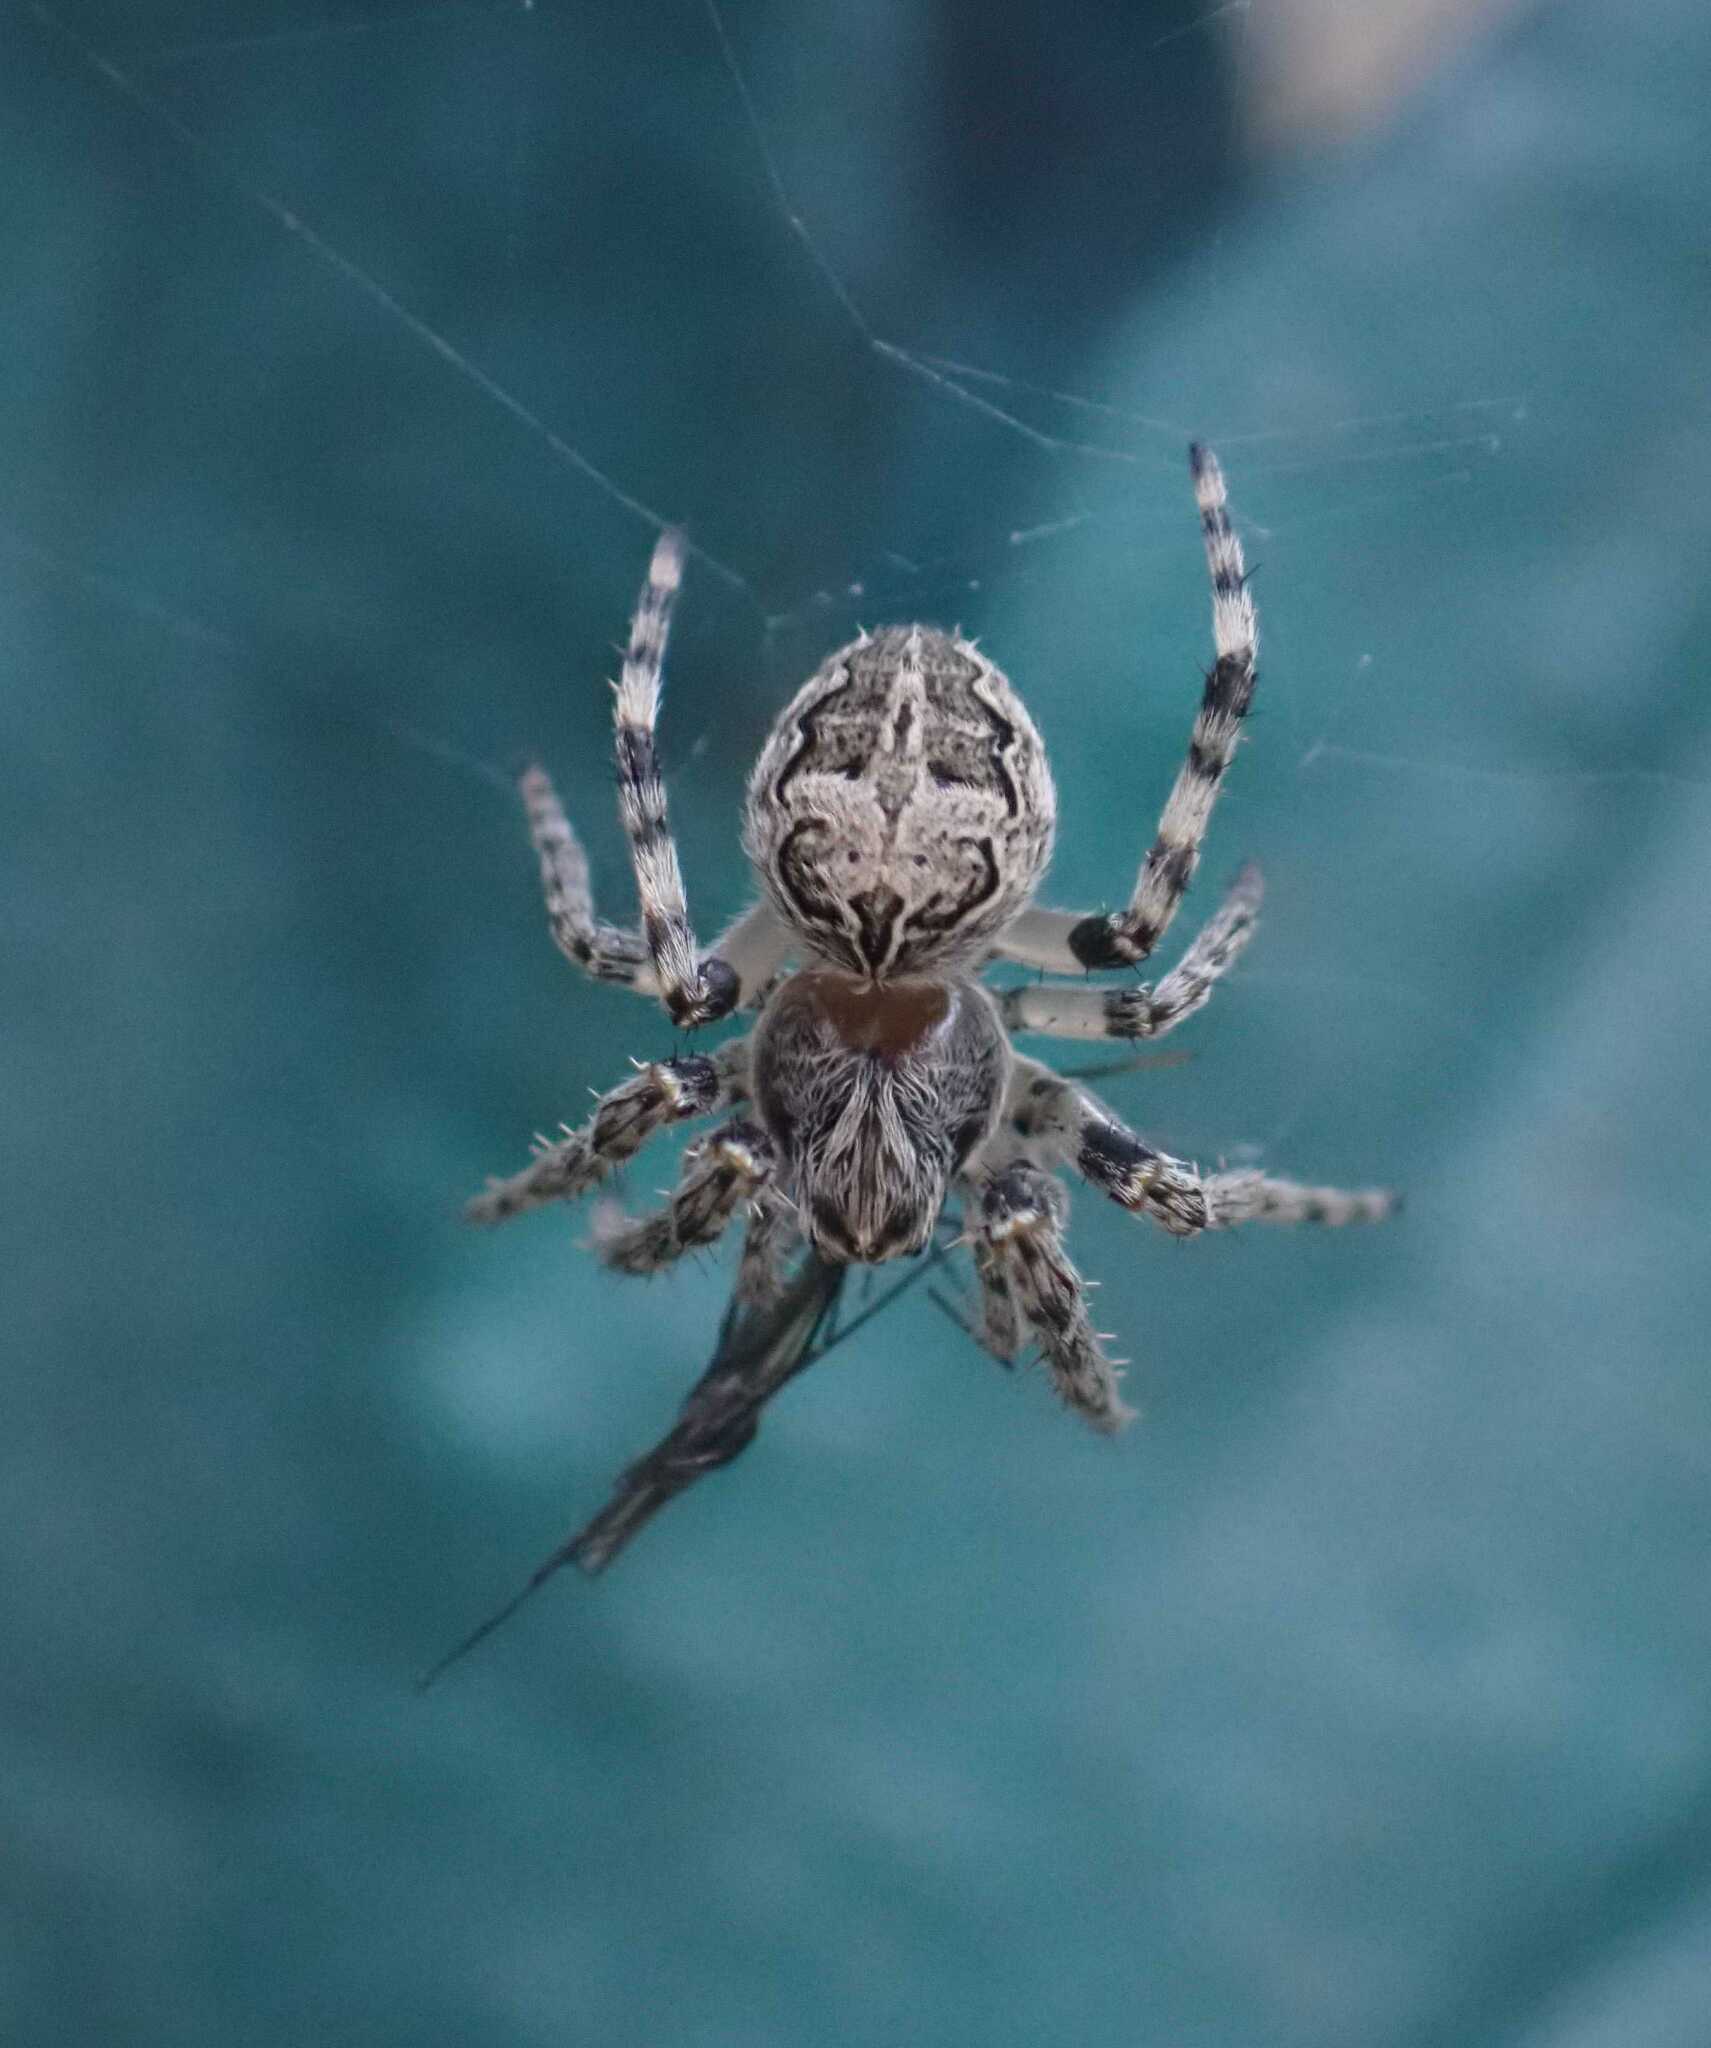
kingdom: Animalia
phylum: Arthropoda
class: Arachnida
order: Araneae
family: Araneidae
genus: Larinioides
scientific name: Larinioides sclopetarius
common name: Bridge orbweaver
